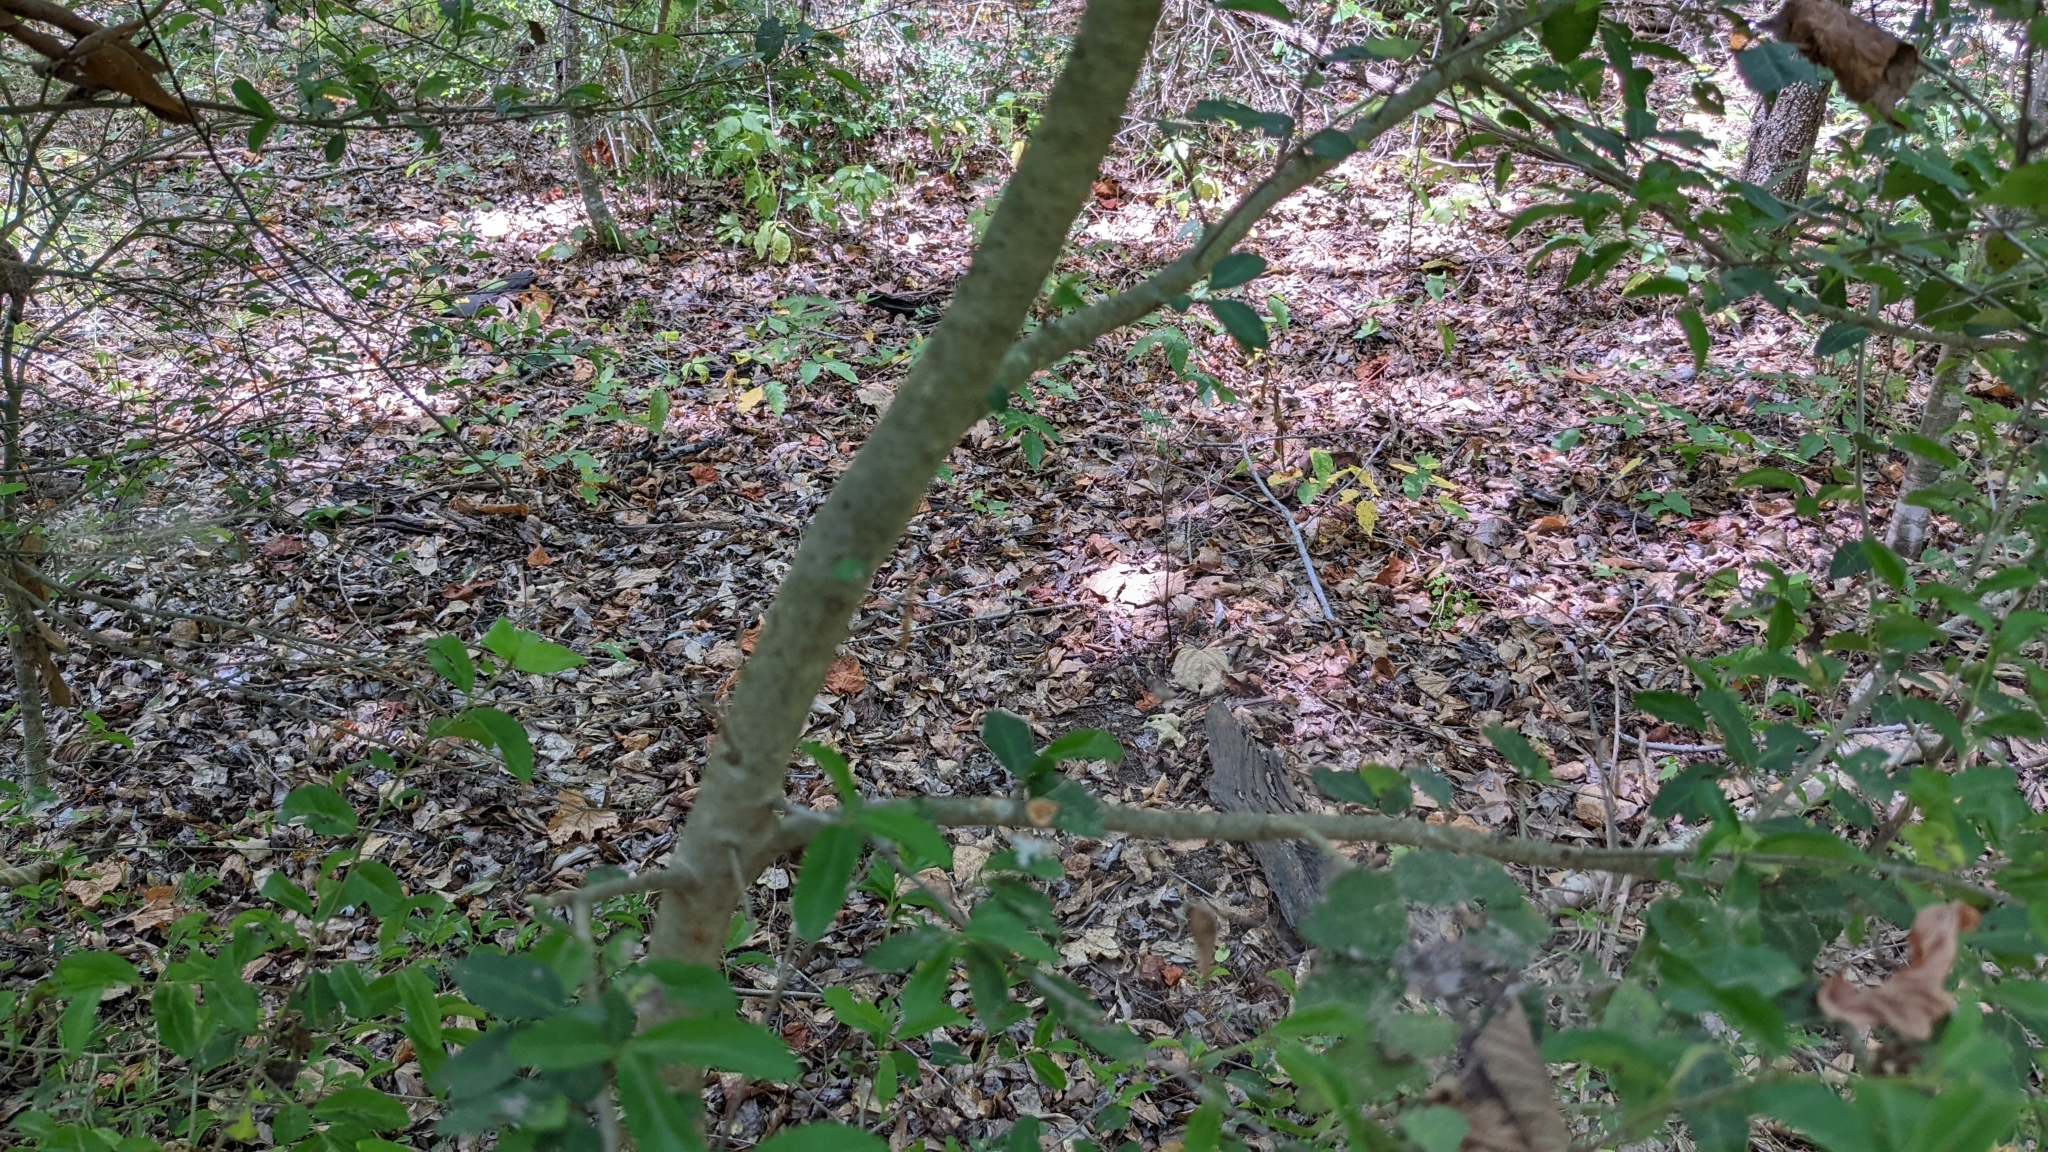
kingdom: Plantae
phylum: Tracheophyta
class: Magnoliopsida
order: Aquifoliales
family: Aquifoliaceae
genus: Ilex
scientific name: Ilex vomitoria
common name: Yaupon holly
